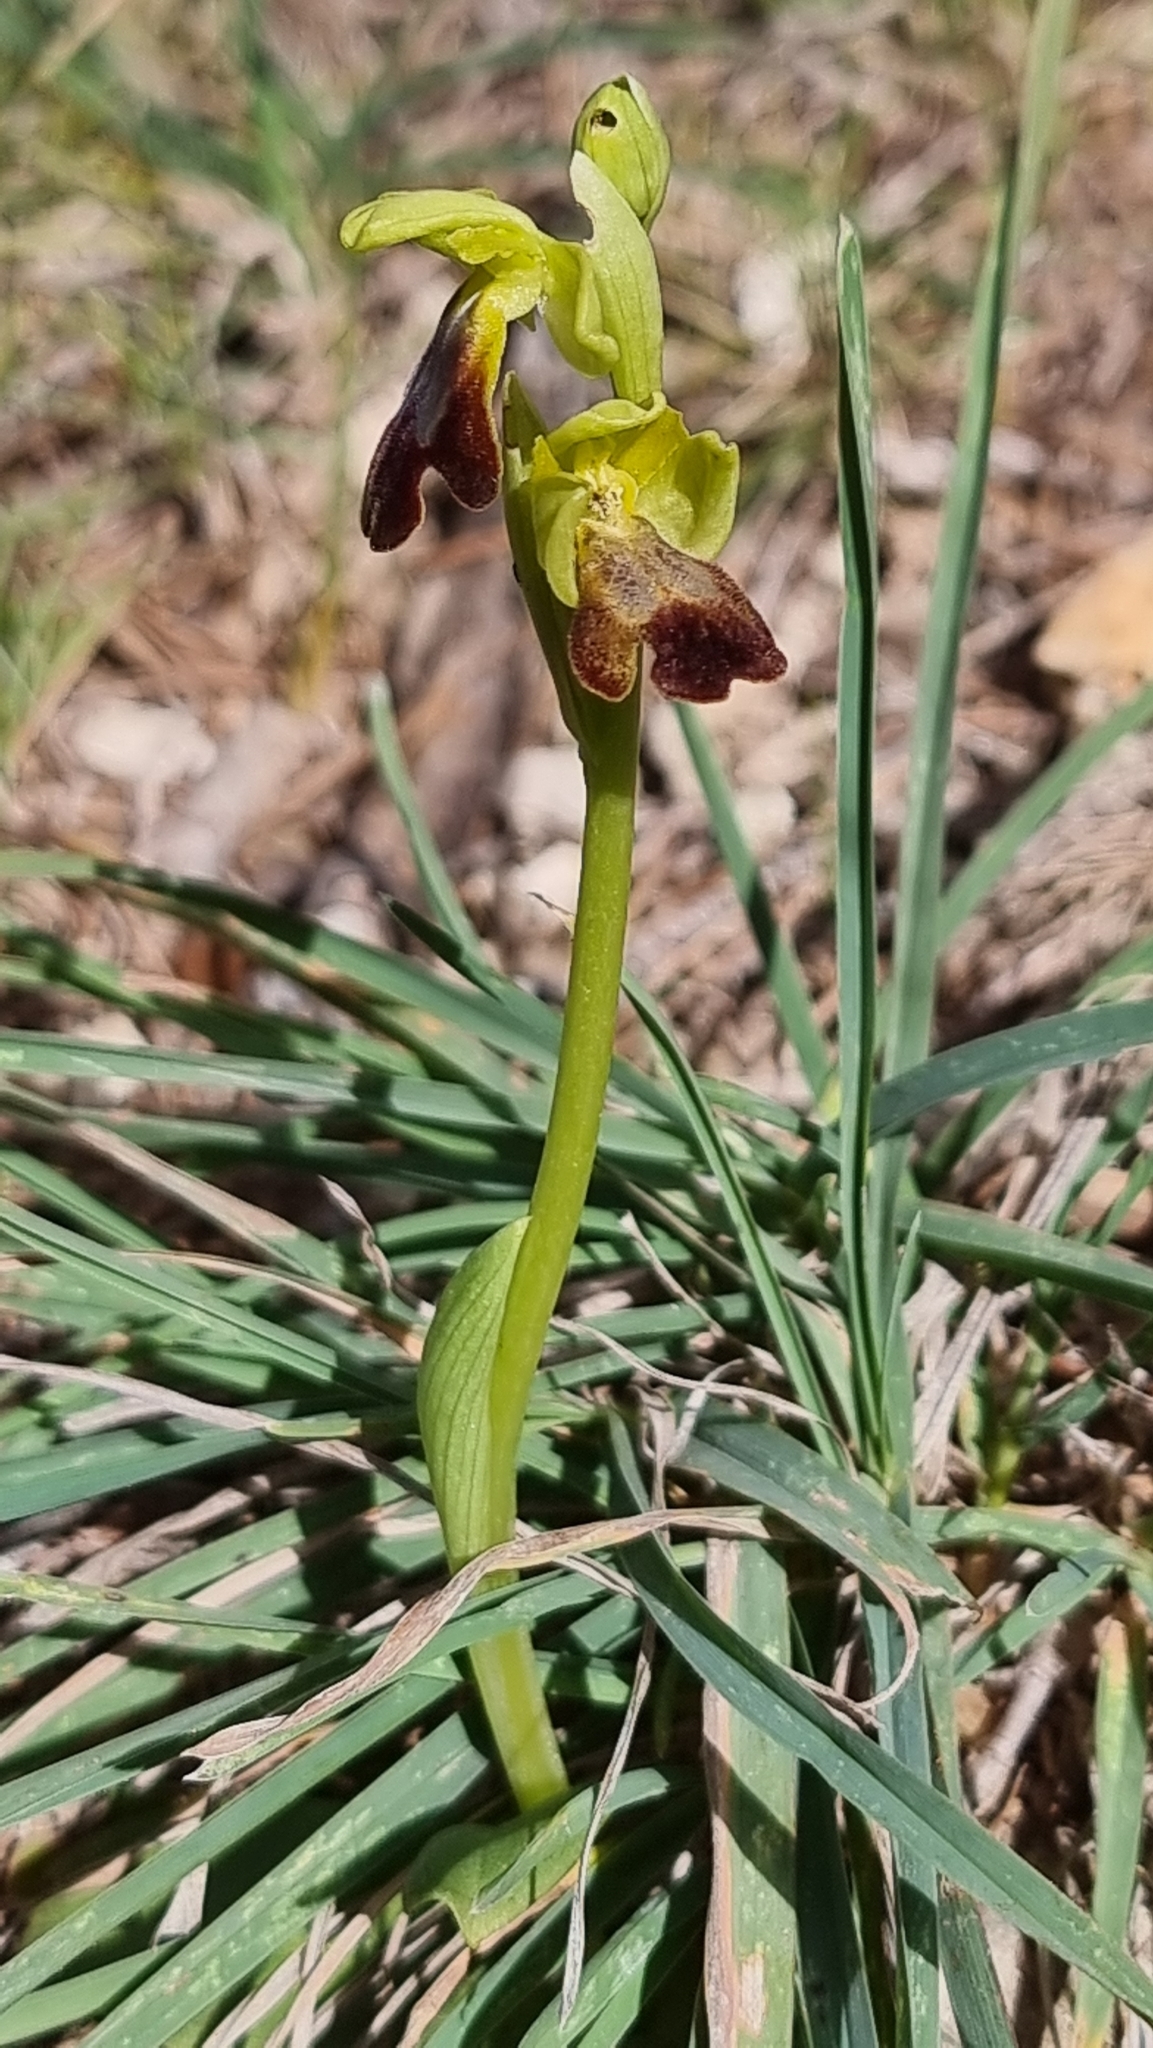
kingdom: Plantae
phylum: Tracheophyta
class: Liliopsida
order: Asparagales
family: Orchidaceae
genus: Ophrys
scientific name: Ophrys fusca
